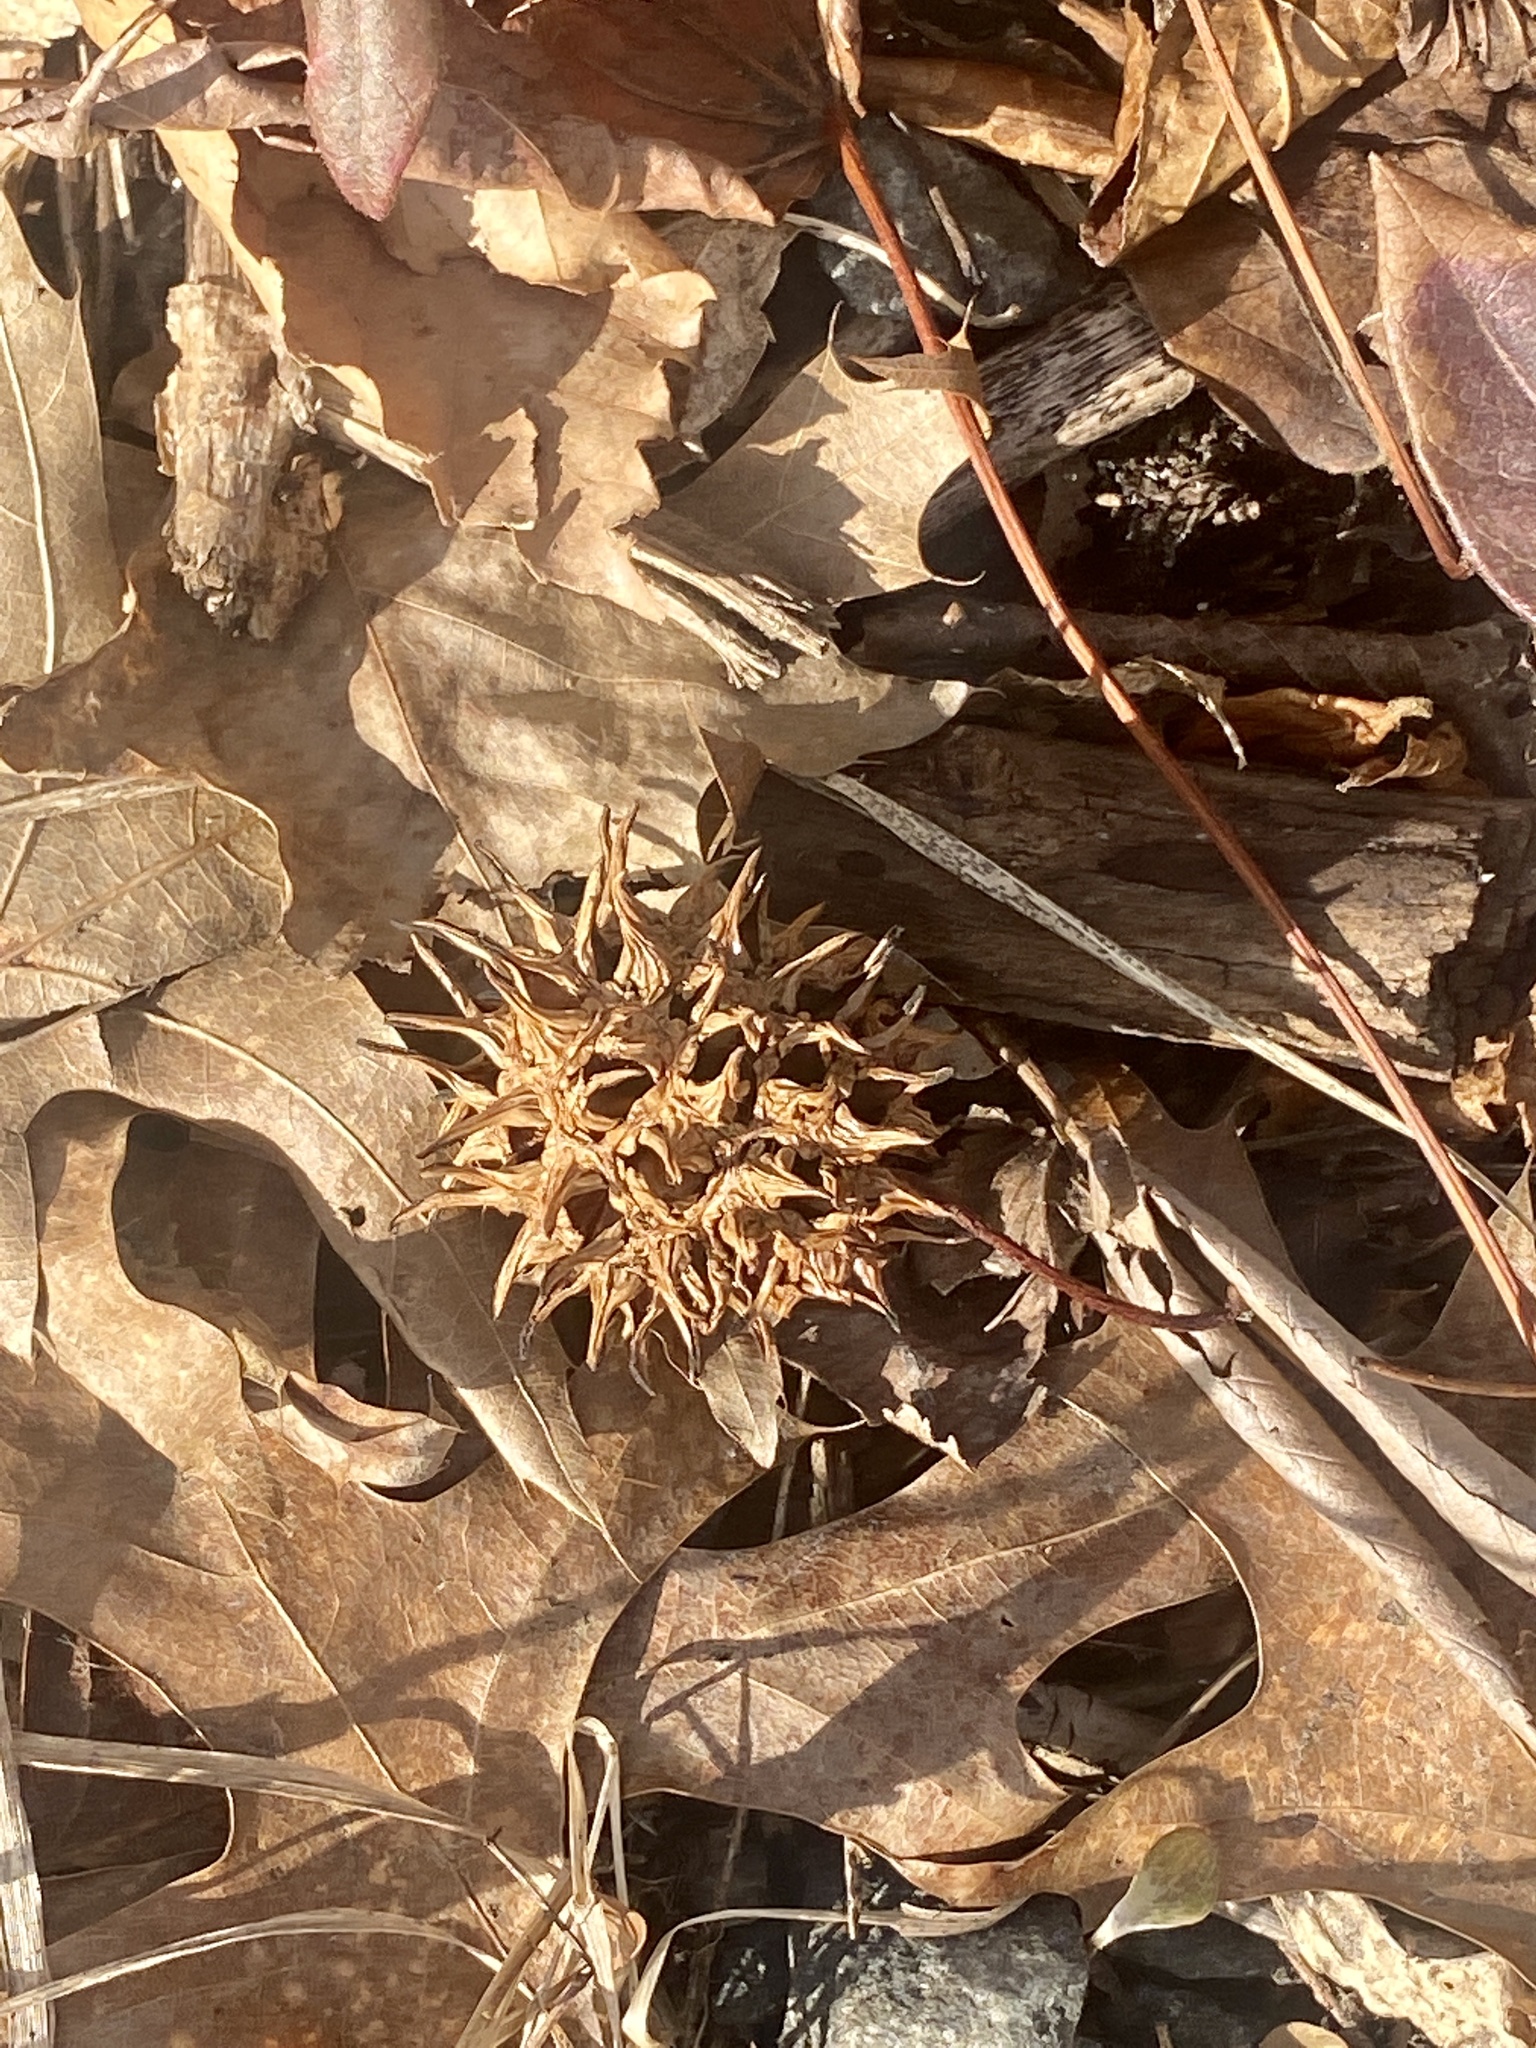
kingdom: Plantae
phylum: Tracheophyta
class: Magnoliopsida
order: Saxifragales
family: Altingiaceae
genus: Liquidambar
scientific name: Liquidambar styraciflua
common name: Sweet gum
